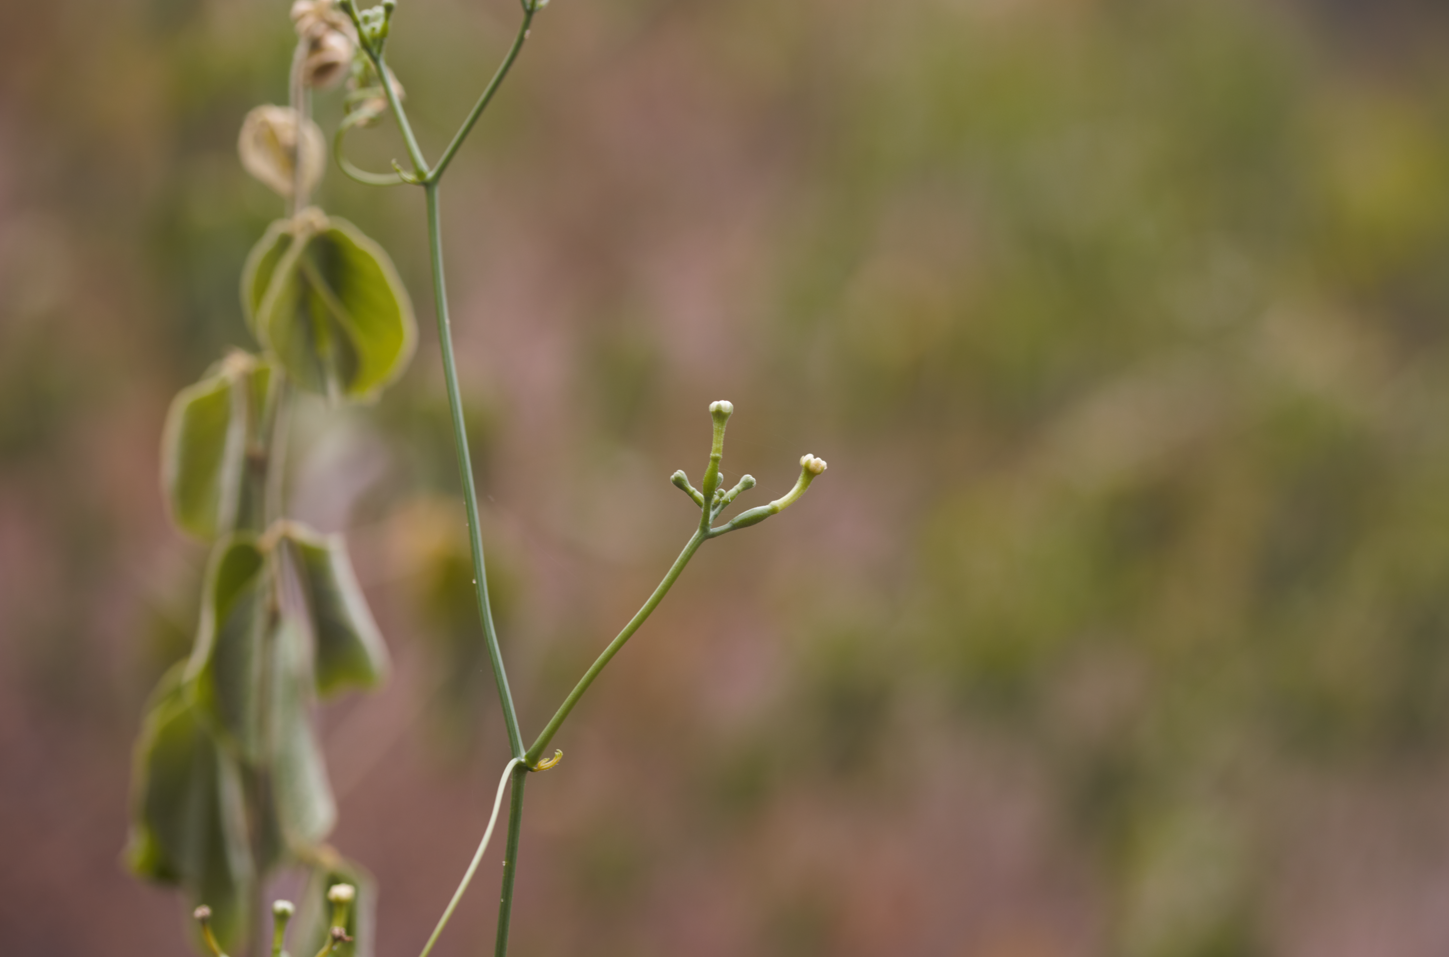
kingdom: Plantae
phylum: Tracheophyta
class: Magnoliopsida
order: Cucurbitales
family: Cucurbitaceae
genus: Ceratosanthes
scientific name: Ceratosanthes palmata
